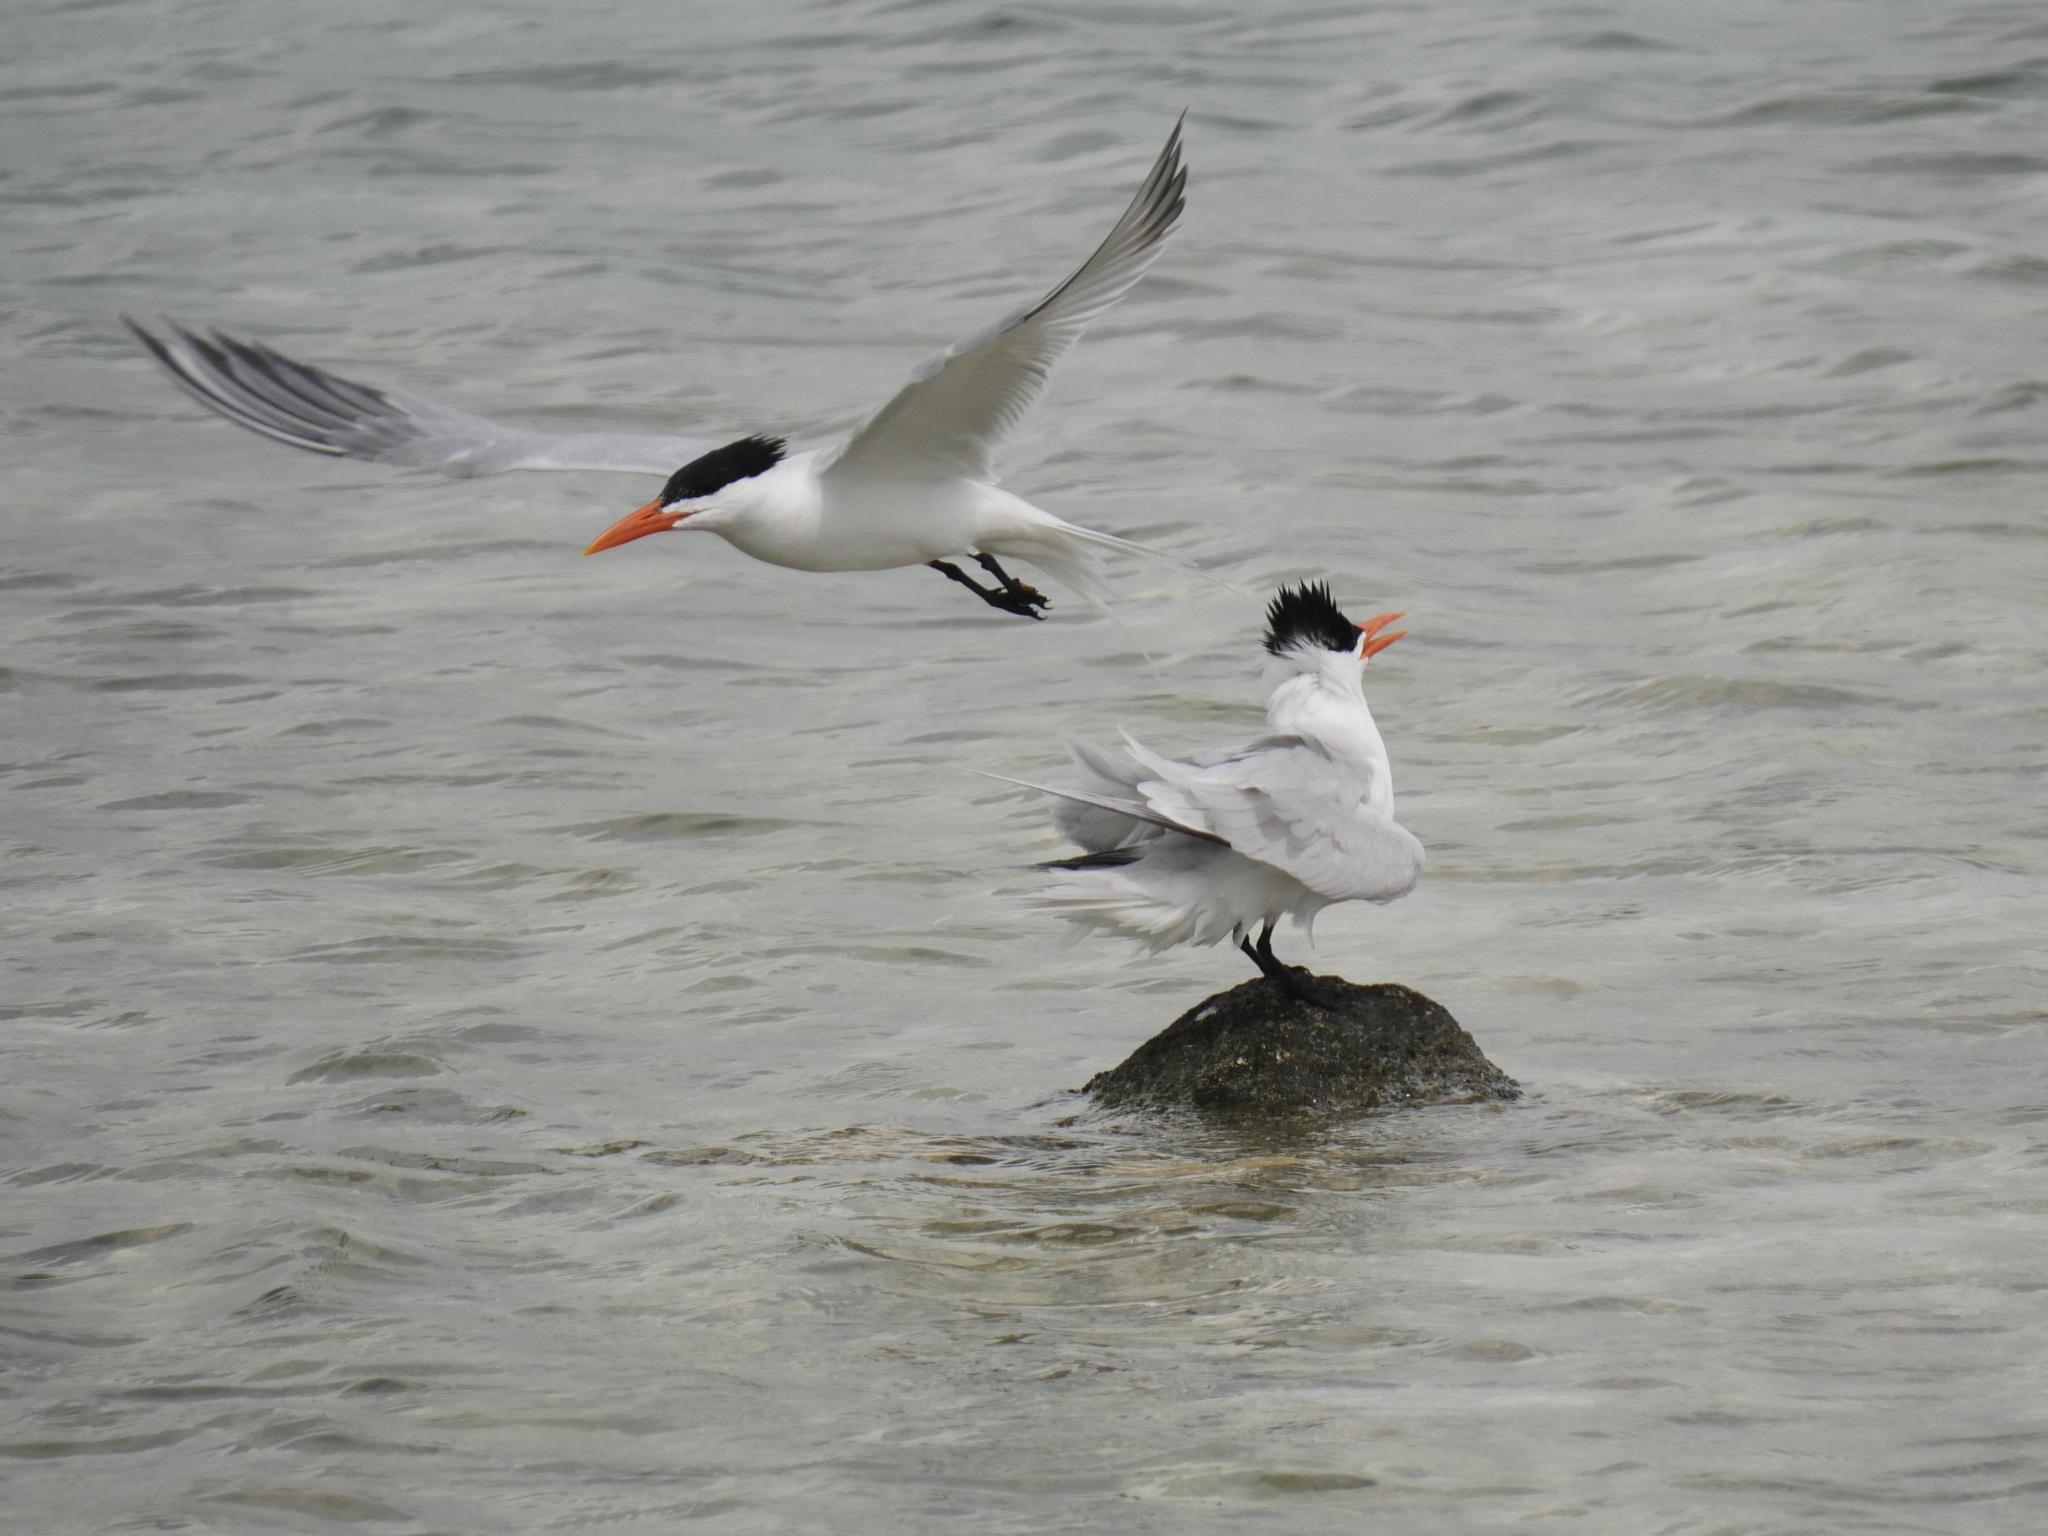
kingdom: Animalia
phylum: Chordata
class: Aves
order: Charadriiformes
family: Laridae
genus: Thalasseus
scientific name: Thalasseus maximus
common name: Royal tern
